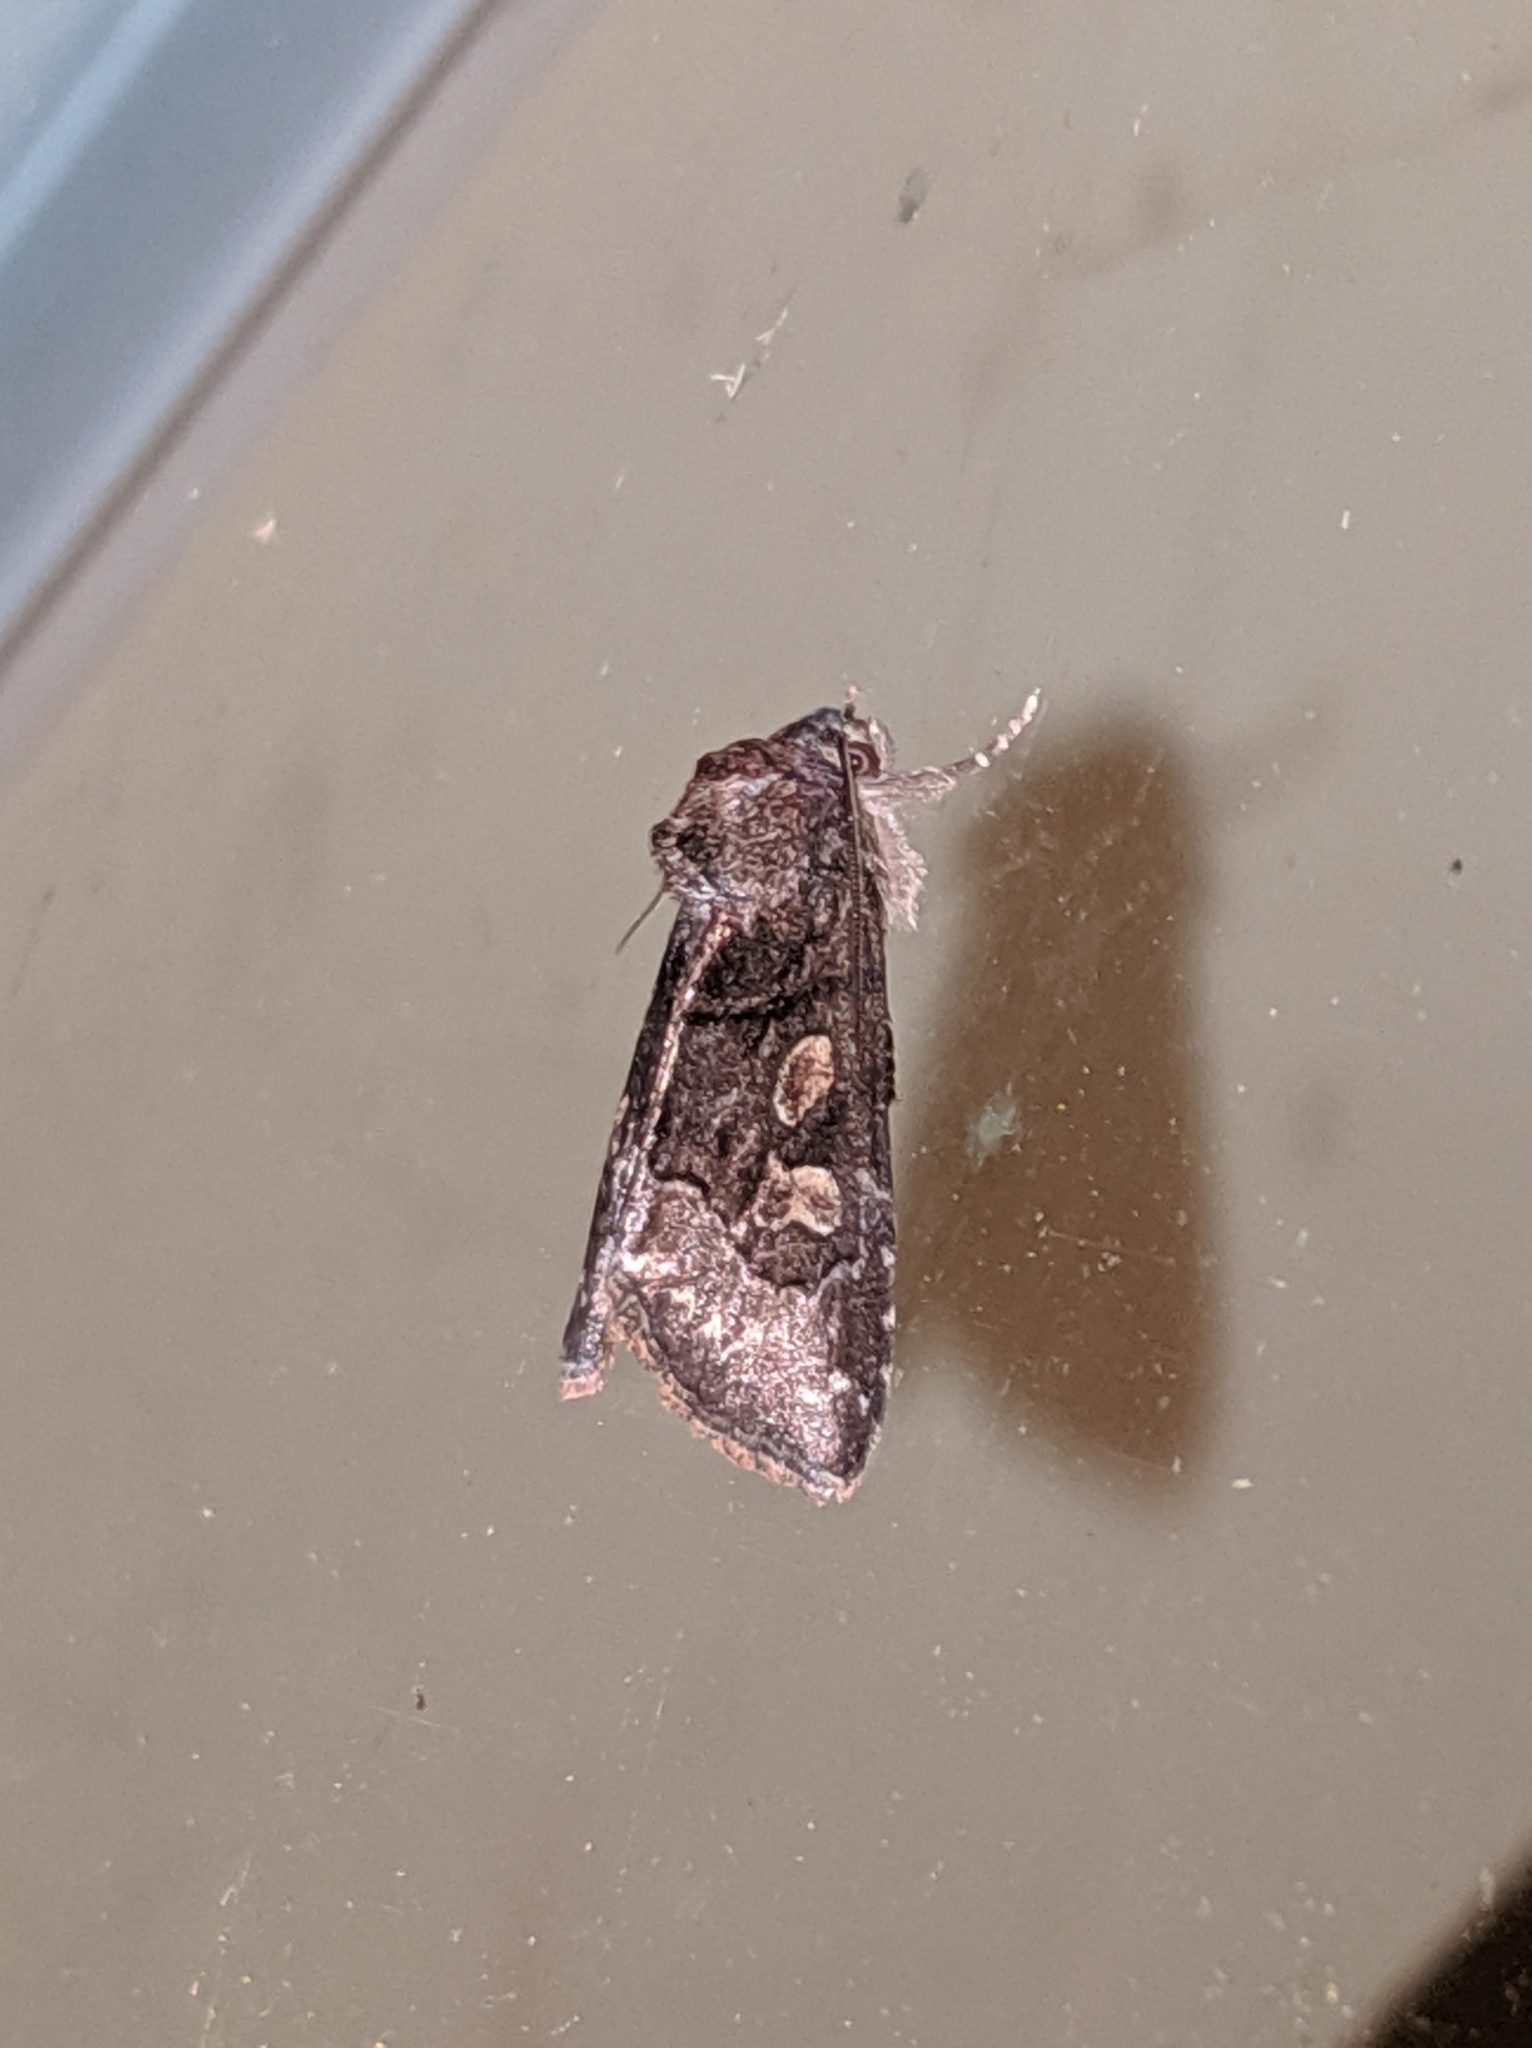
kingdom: Animalia
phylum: Arthropoda
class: Insecta
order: Lepidoptera
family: Noctuidae
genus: Cosmia
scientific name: Cosmia praeacuta
